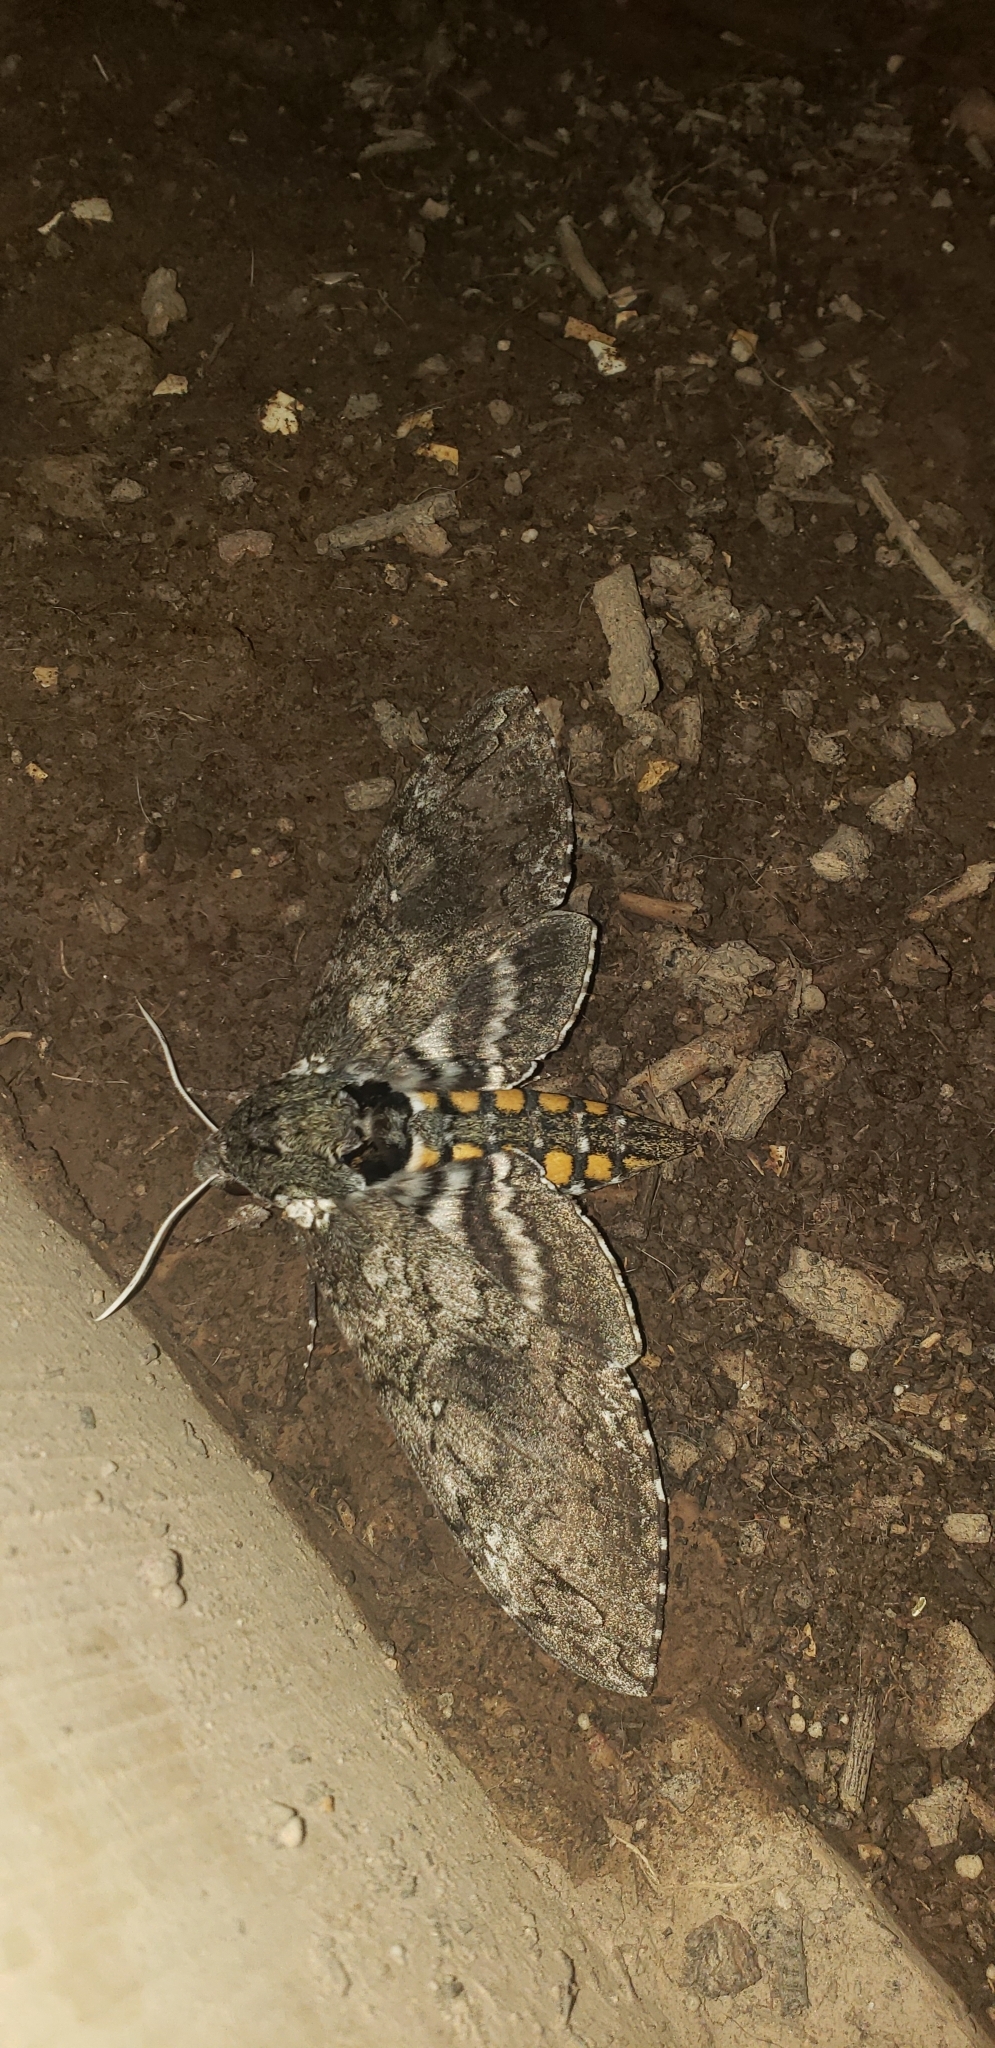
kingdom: Animalia
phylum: Arthropoda
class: Insecta
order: Lepidoptera
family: Sphingidae
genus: Manduca
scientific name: Manduca sexta
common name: Carolina sphinx
